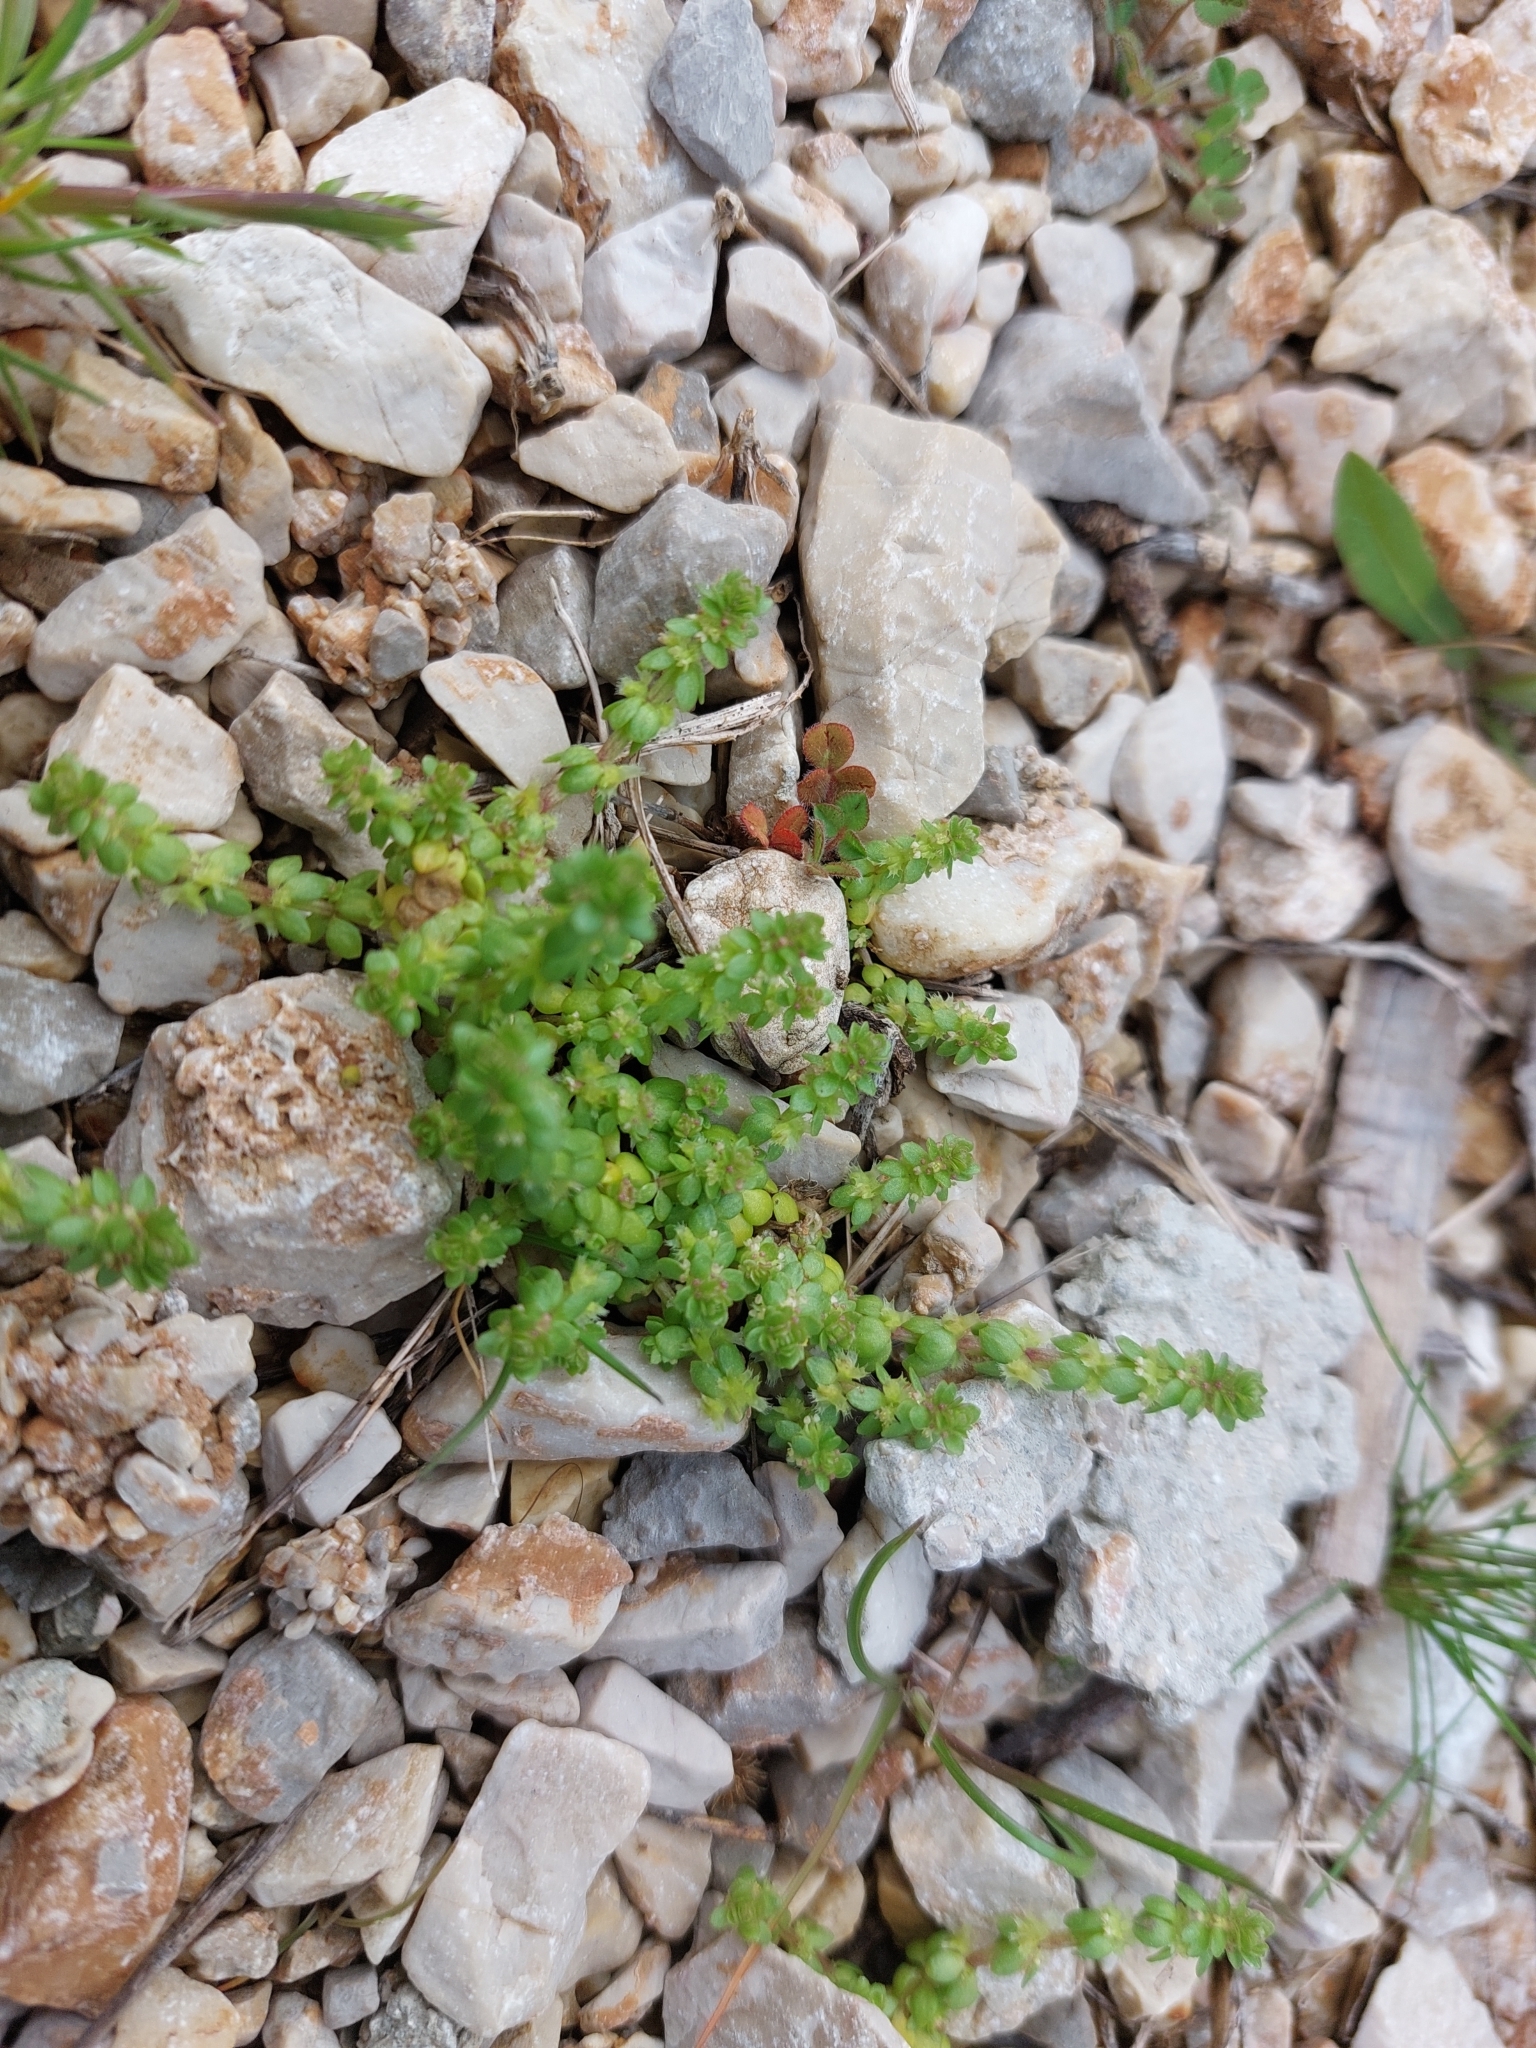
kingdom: Plantae
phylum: Tracheophyta
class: Magnoliopsida
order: Gentianales
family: Rubiaceae
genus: Valantia
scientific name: Valantia muralis
